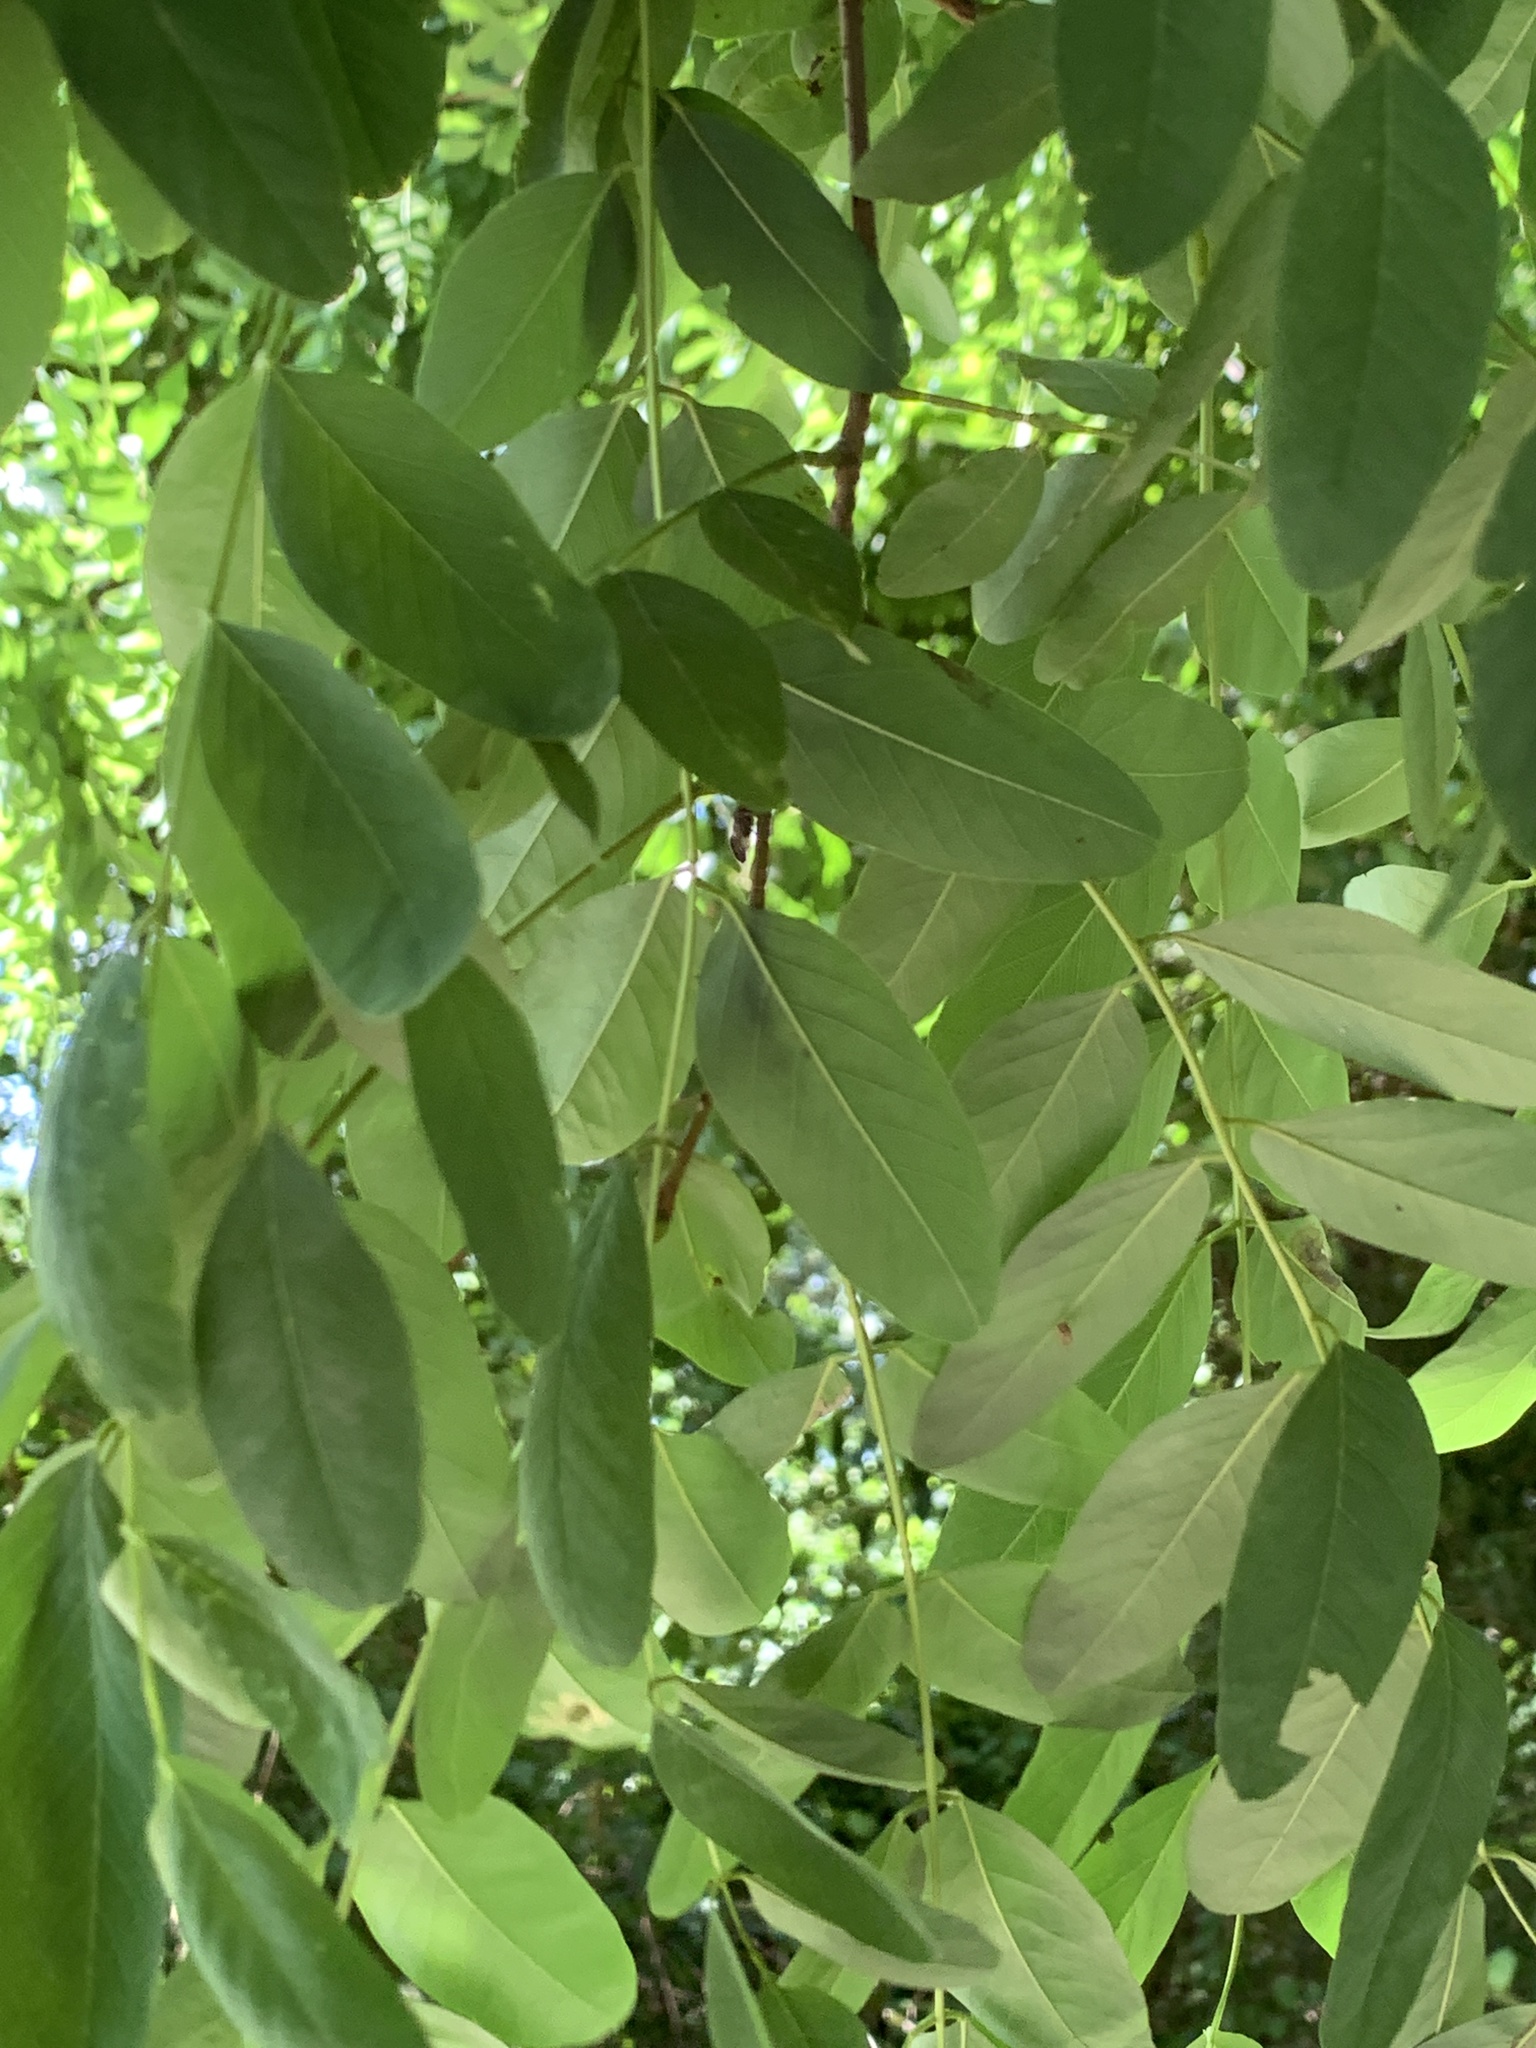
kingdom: Plantae
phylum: Tracheophyta
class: Magnoliopsida
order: Fabales
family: Fabaceae
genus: Robinia
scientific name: Robinia pseudoacacia
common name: Black locust
